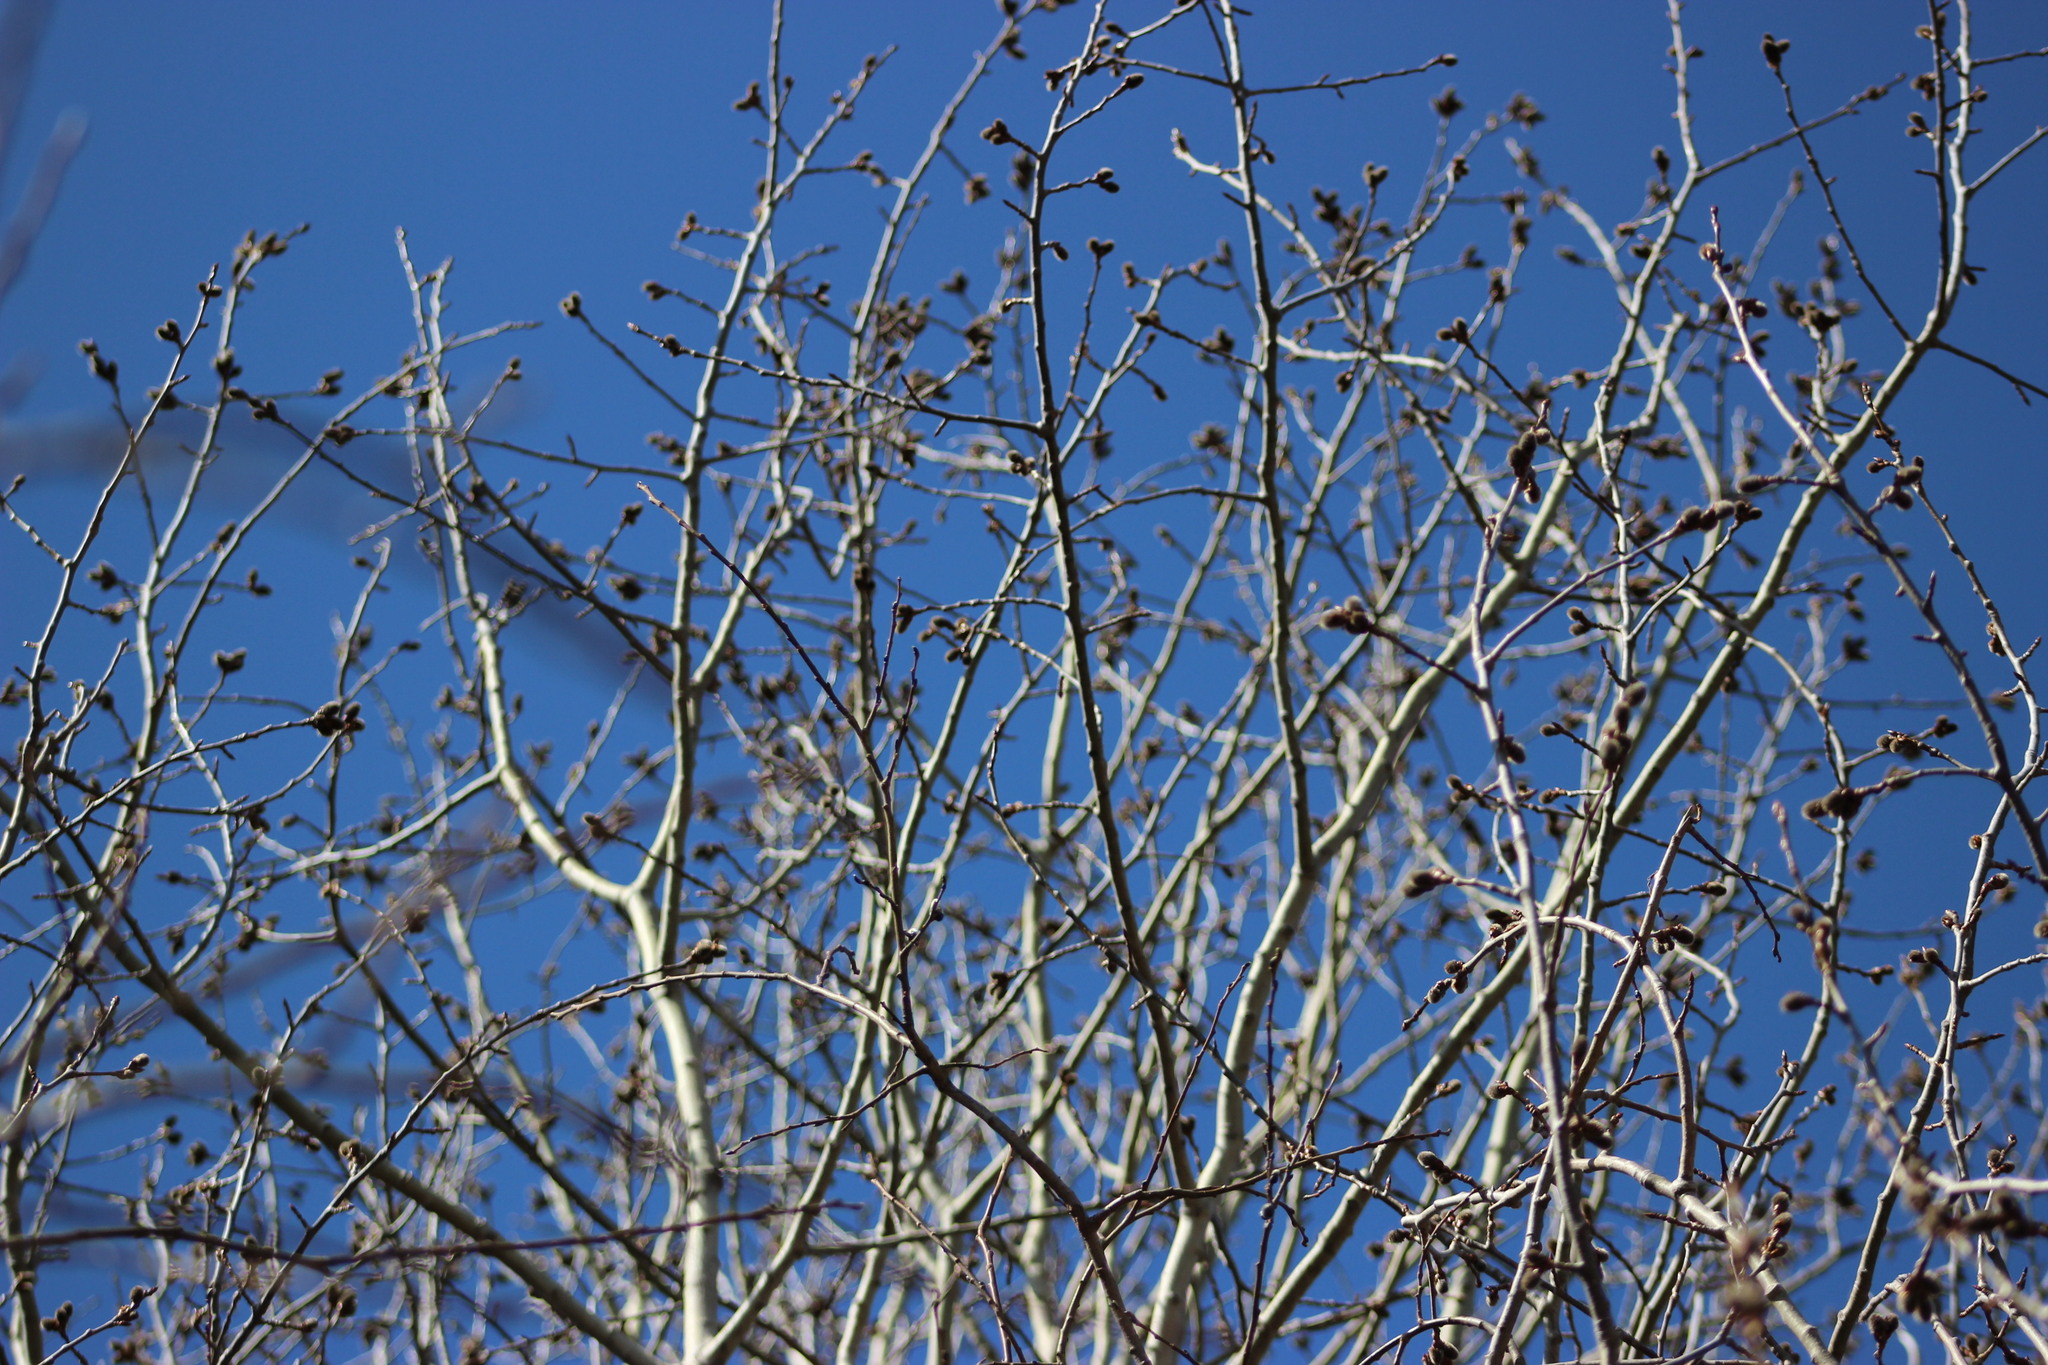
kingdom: Plantae
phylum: Tracheophyta
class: Magnoliopsida
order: Malpighiales
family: Salicaceae
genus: Populus
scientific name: Populus tremula
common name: European aspen
